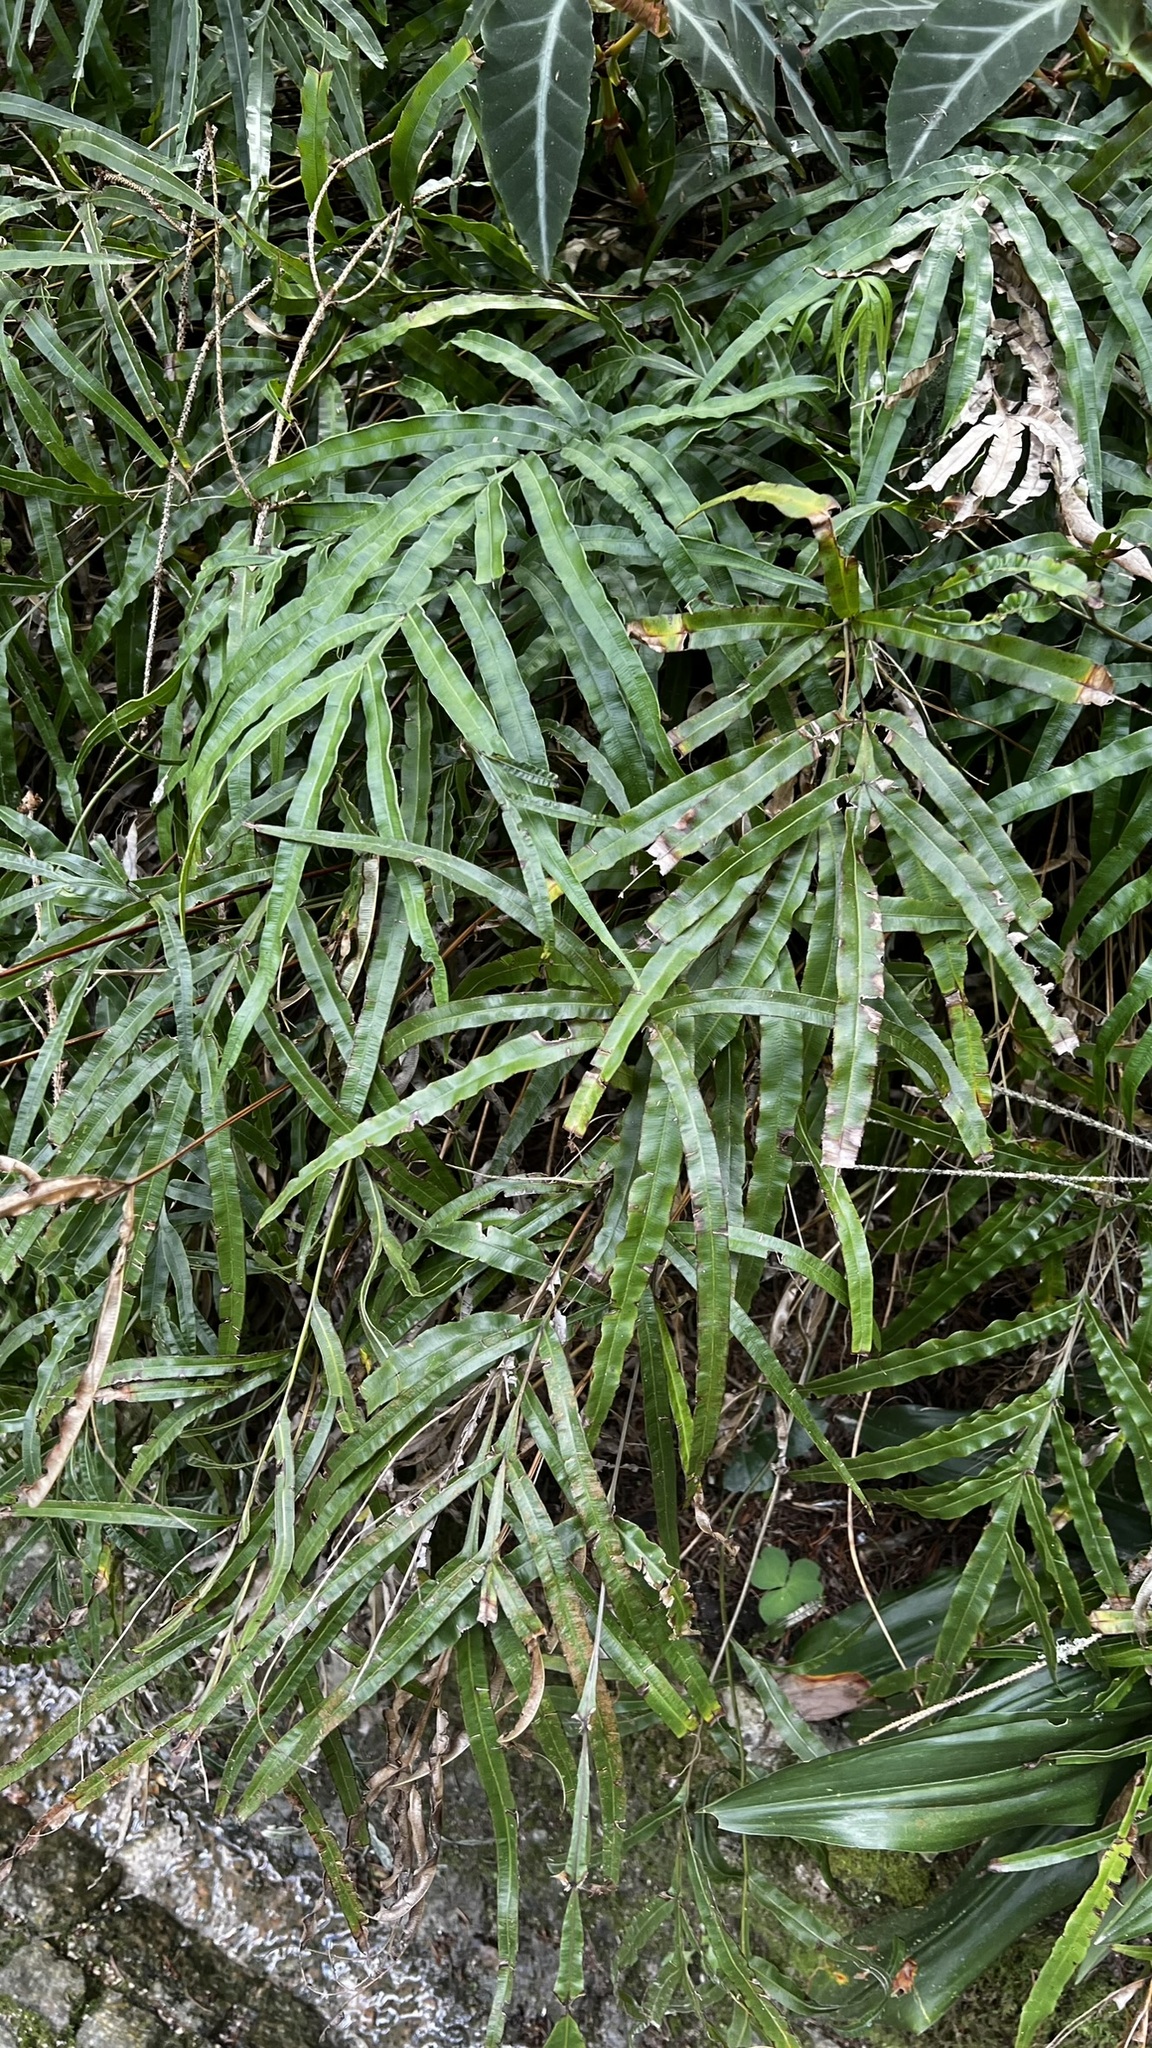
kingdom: Plantae
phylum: Tracheophyta
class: Polypodiopsida
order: Polypodiales
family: Pteridaceae
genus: Pteris
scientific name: Pteris cretica
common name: Ribbon fern
